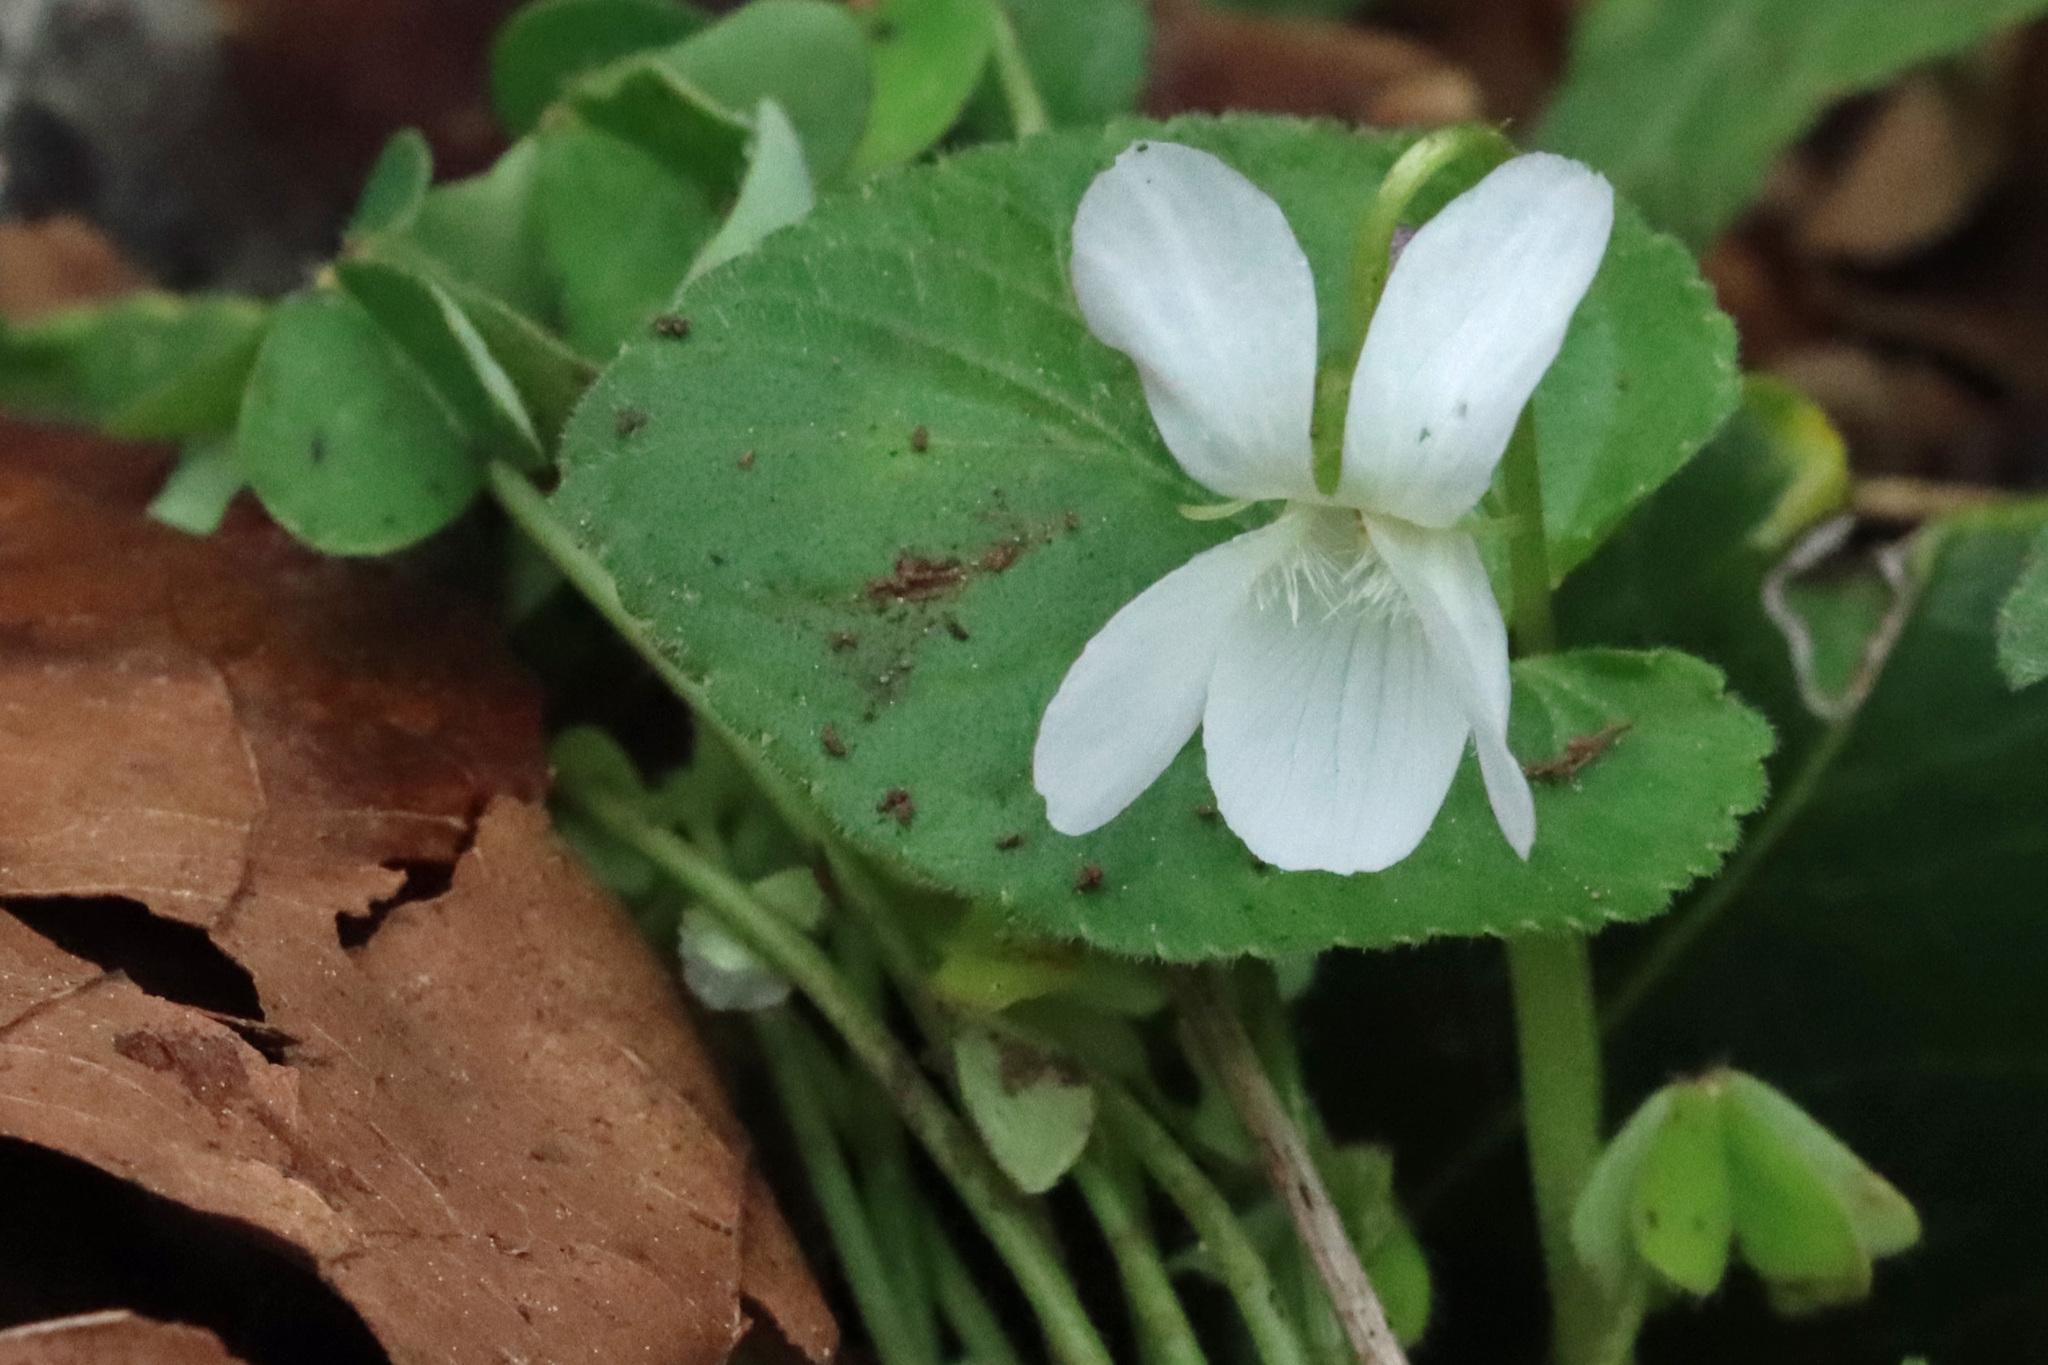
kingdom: Plantae
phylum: Tracheophyta
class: Magnoliopsida
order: Malpighiales
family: Violaceae
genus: Viola
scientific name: Viola odorata
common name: Sweet violet
